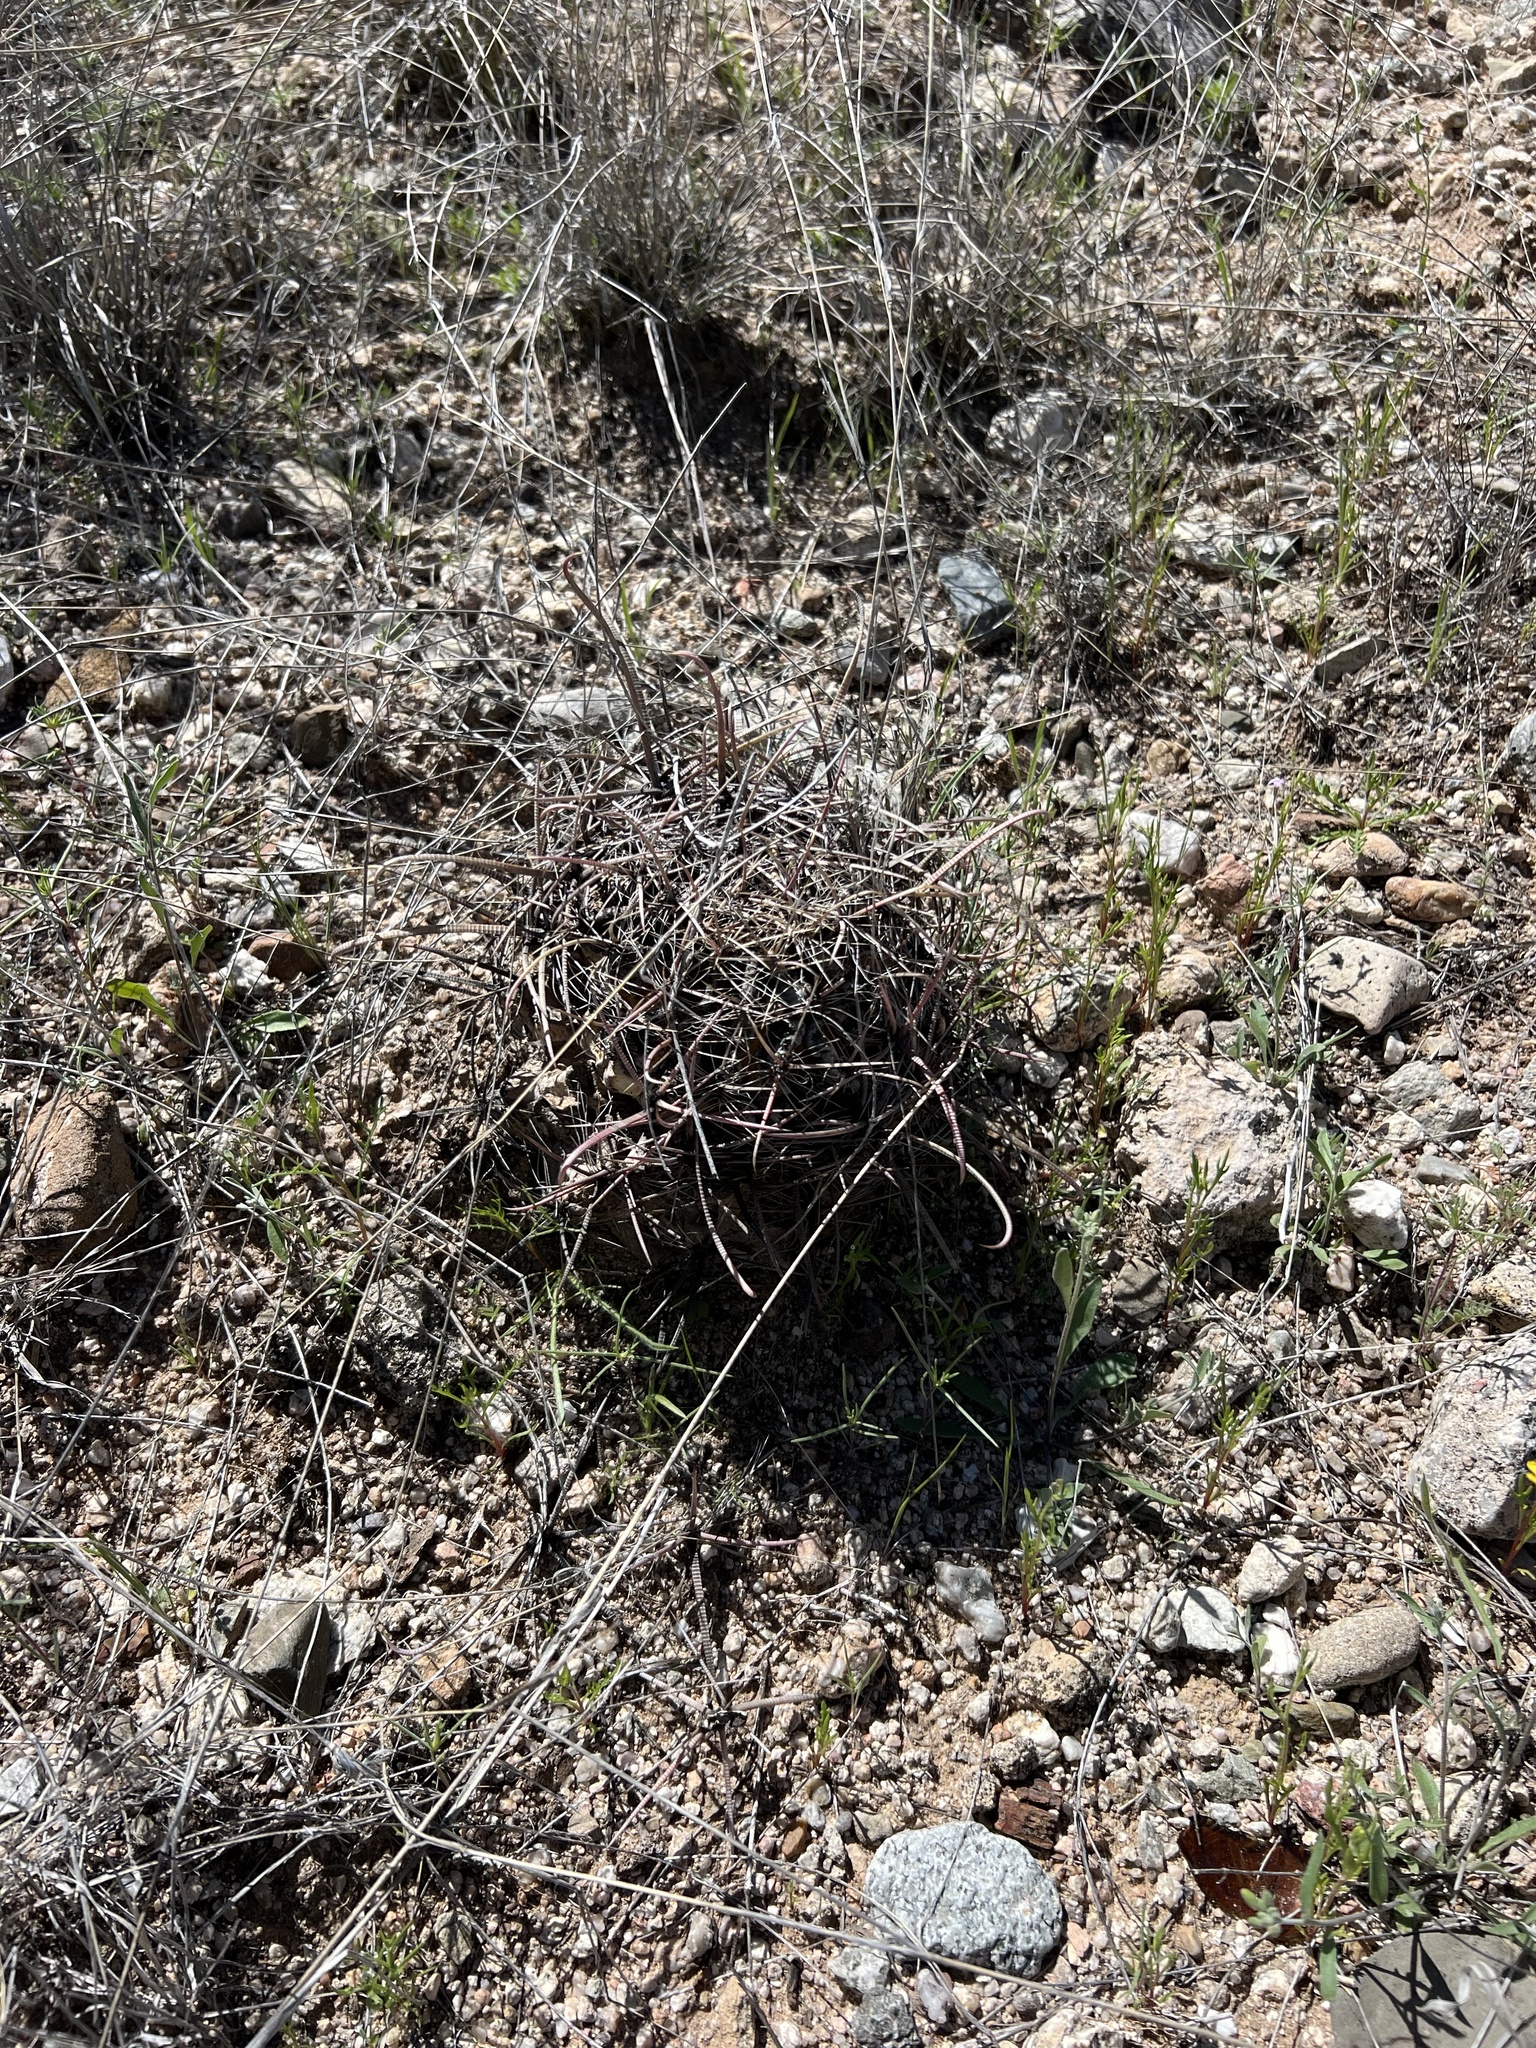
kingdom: Plantae
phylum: Tracheophyta
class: Magnoliopsida
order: Caryophyllales
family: Cactaceae
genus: Ferocactus
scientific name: Ferocactus wislizeni
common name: Candy barrel cactus
